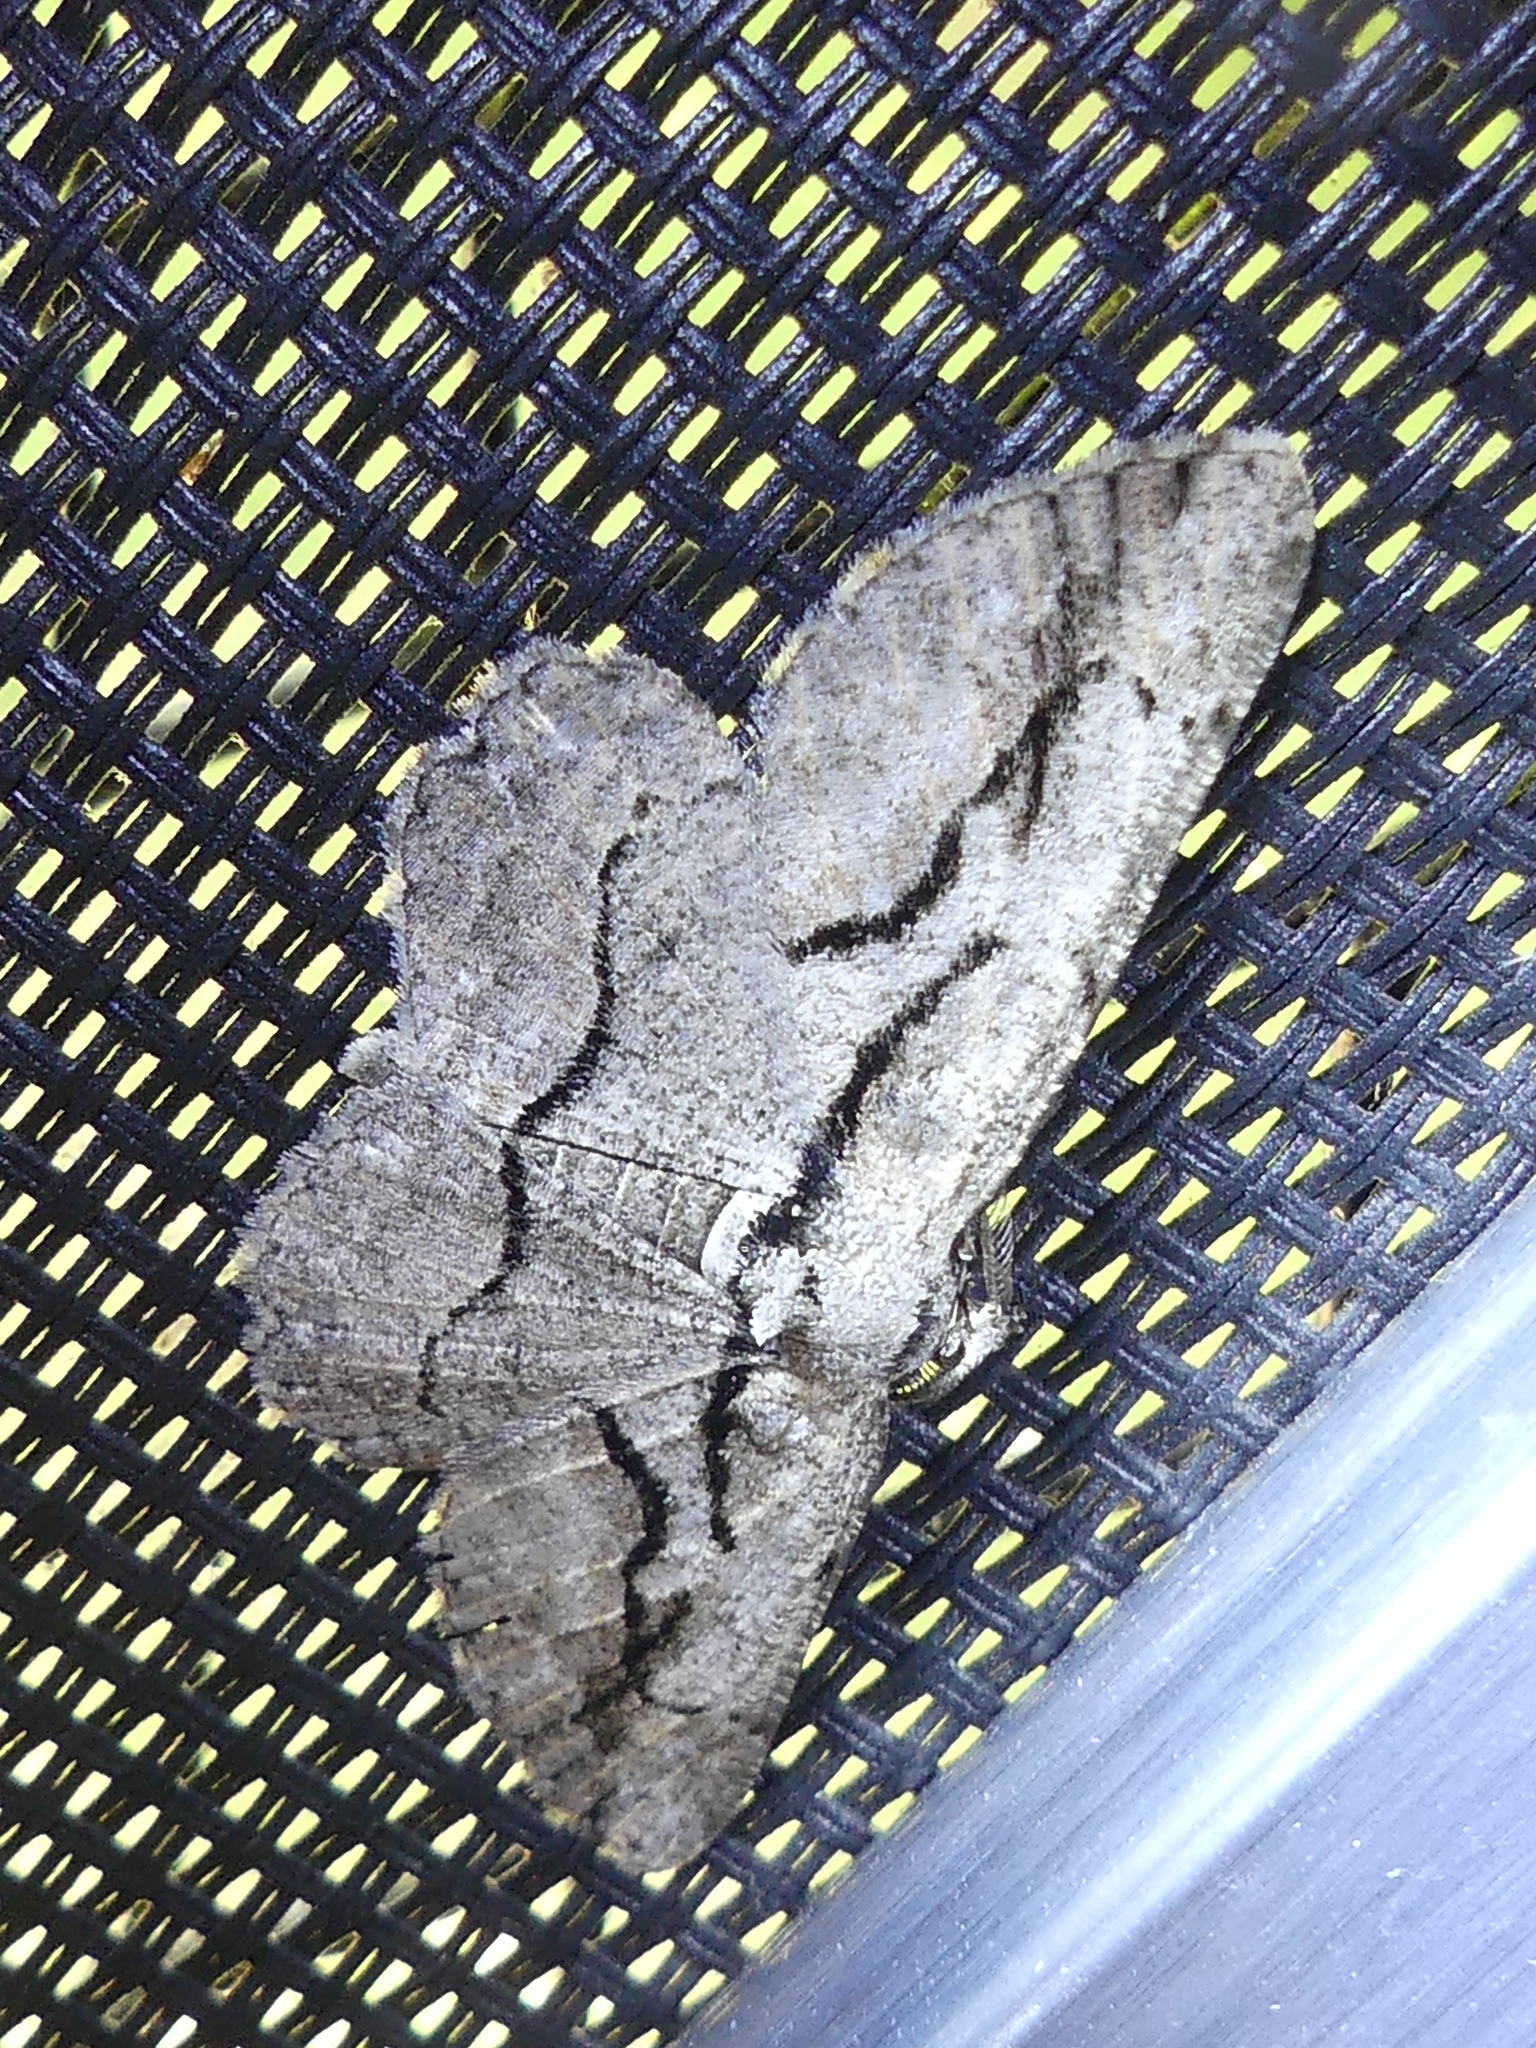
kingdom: Animalia
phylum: Arthropoda
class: Insecta
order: Lepidoptera
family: Geometridae
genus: Anavitrinella
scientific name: Anavitrinella atristrigaria
